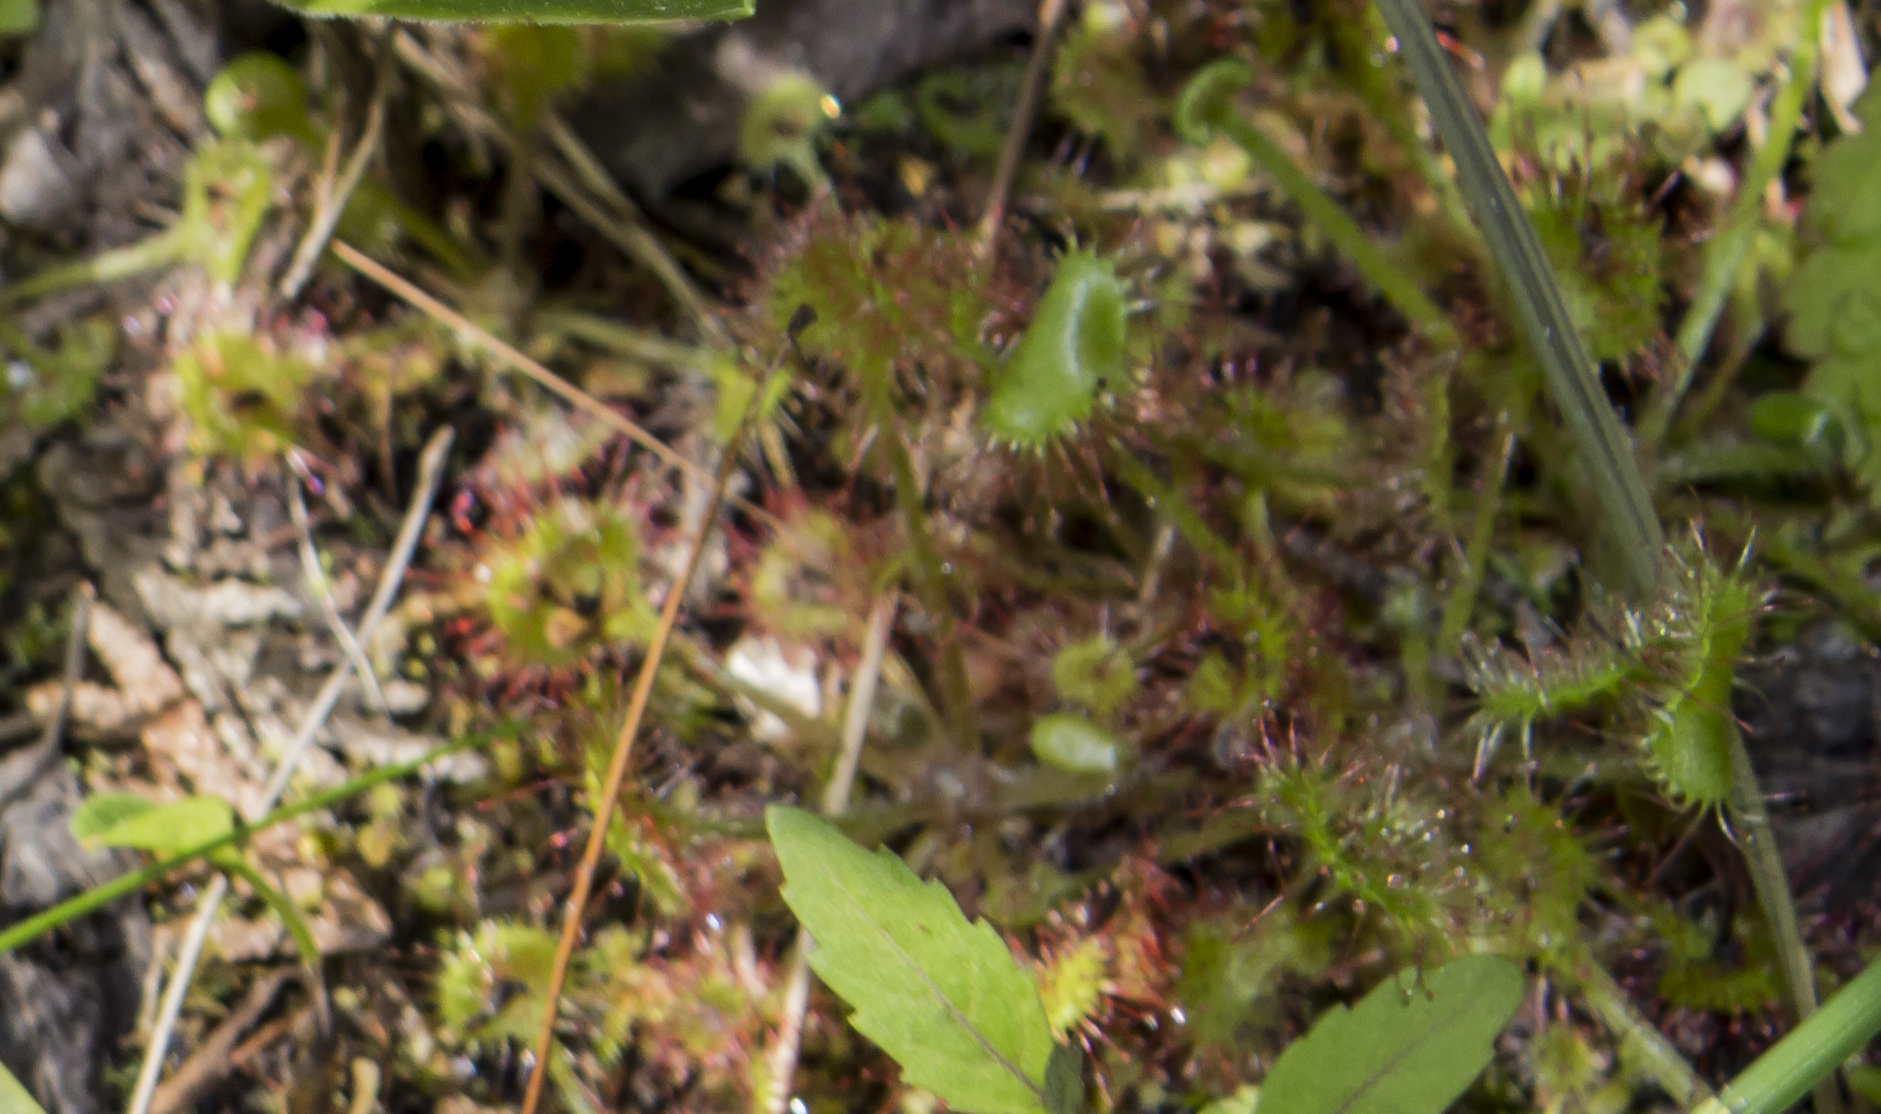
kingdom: Plantae
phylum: Tracheophyta
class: Magnoliopsida
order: Caryophyllales
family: Droseraceae
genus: Drosera
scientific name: Drosera rotundifolia
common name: Round-leaved sundew
